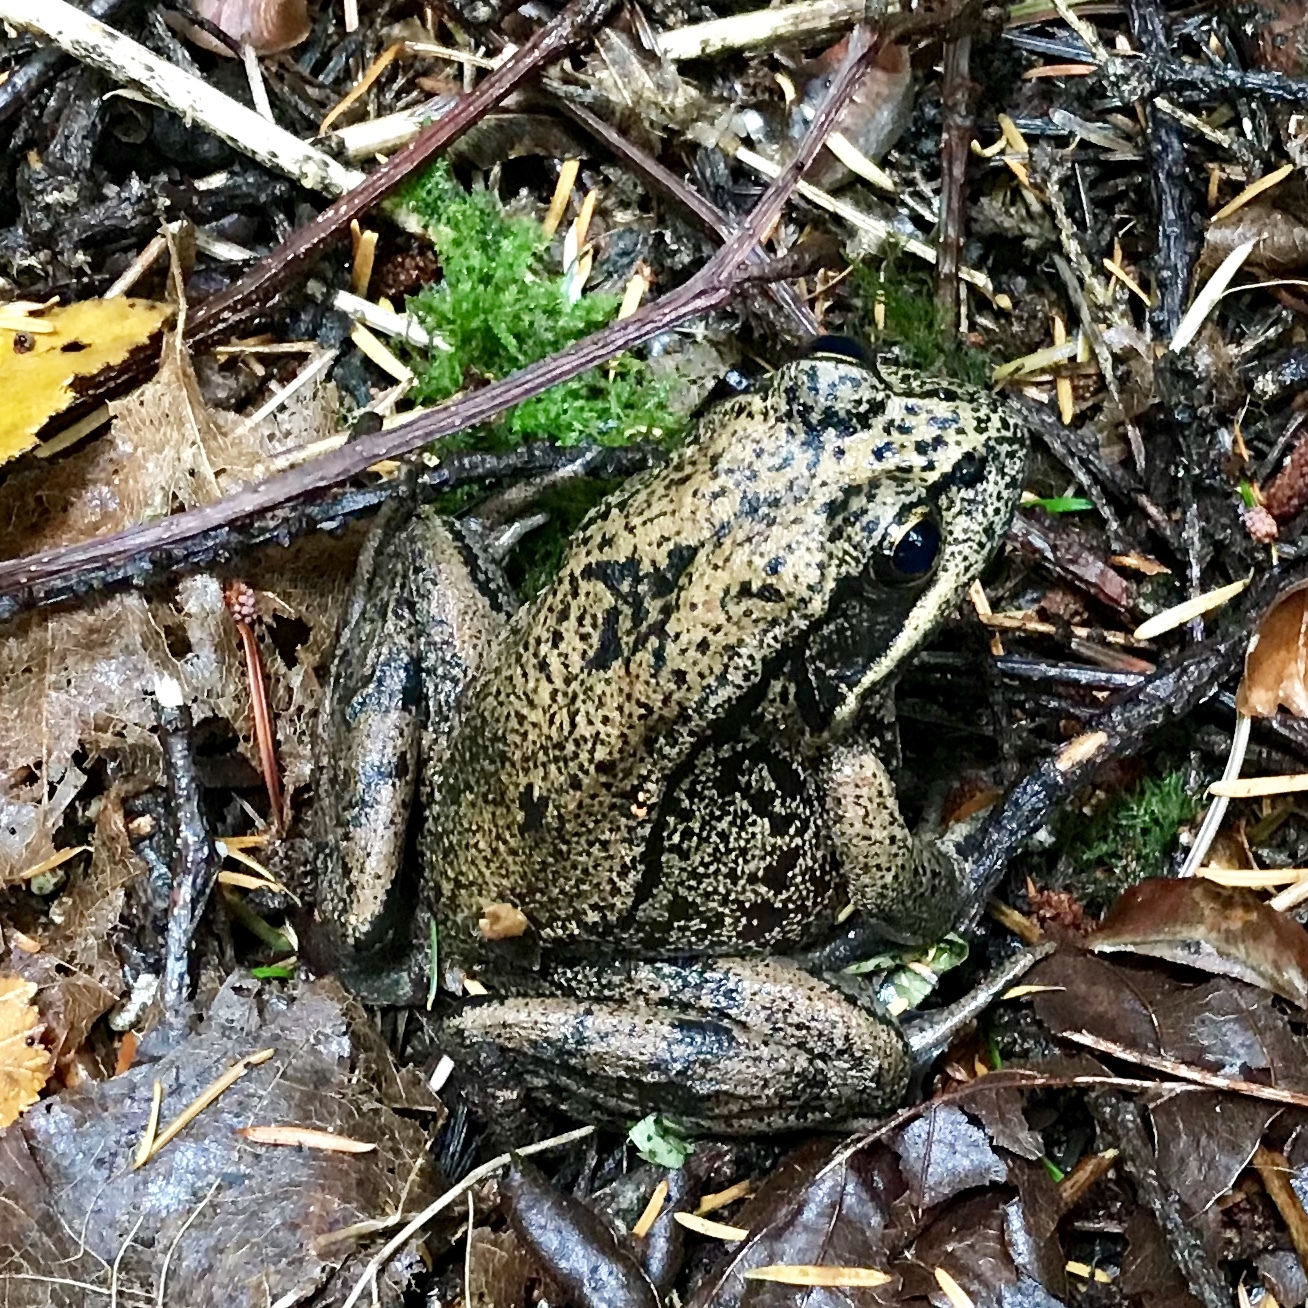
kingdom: Animalia
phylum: Chordata
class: Amphibia
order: Anura
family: Ranidae
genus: Rana
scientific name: Rana aurora
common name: Red-legged frog
